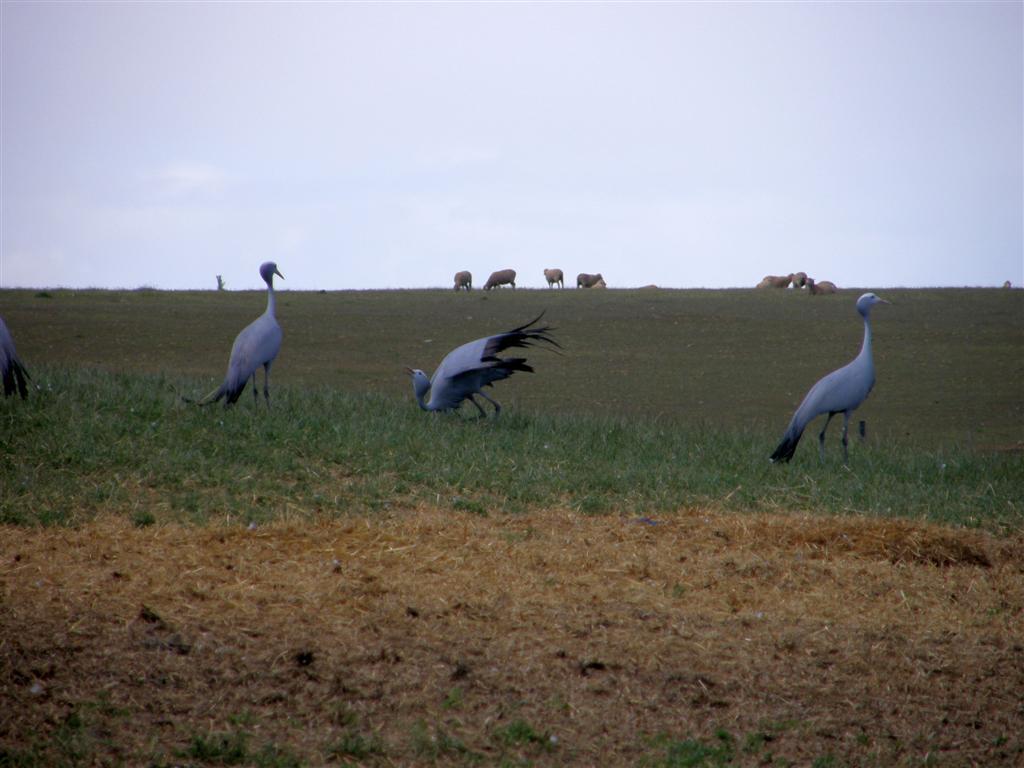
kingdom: Animalia
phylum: Chordata
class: Aves
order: Gruiformes
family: Gruidae
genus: Anthropoides
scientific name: Anthropoides paradiseus
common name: Blue crane
